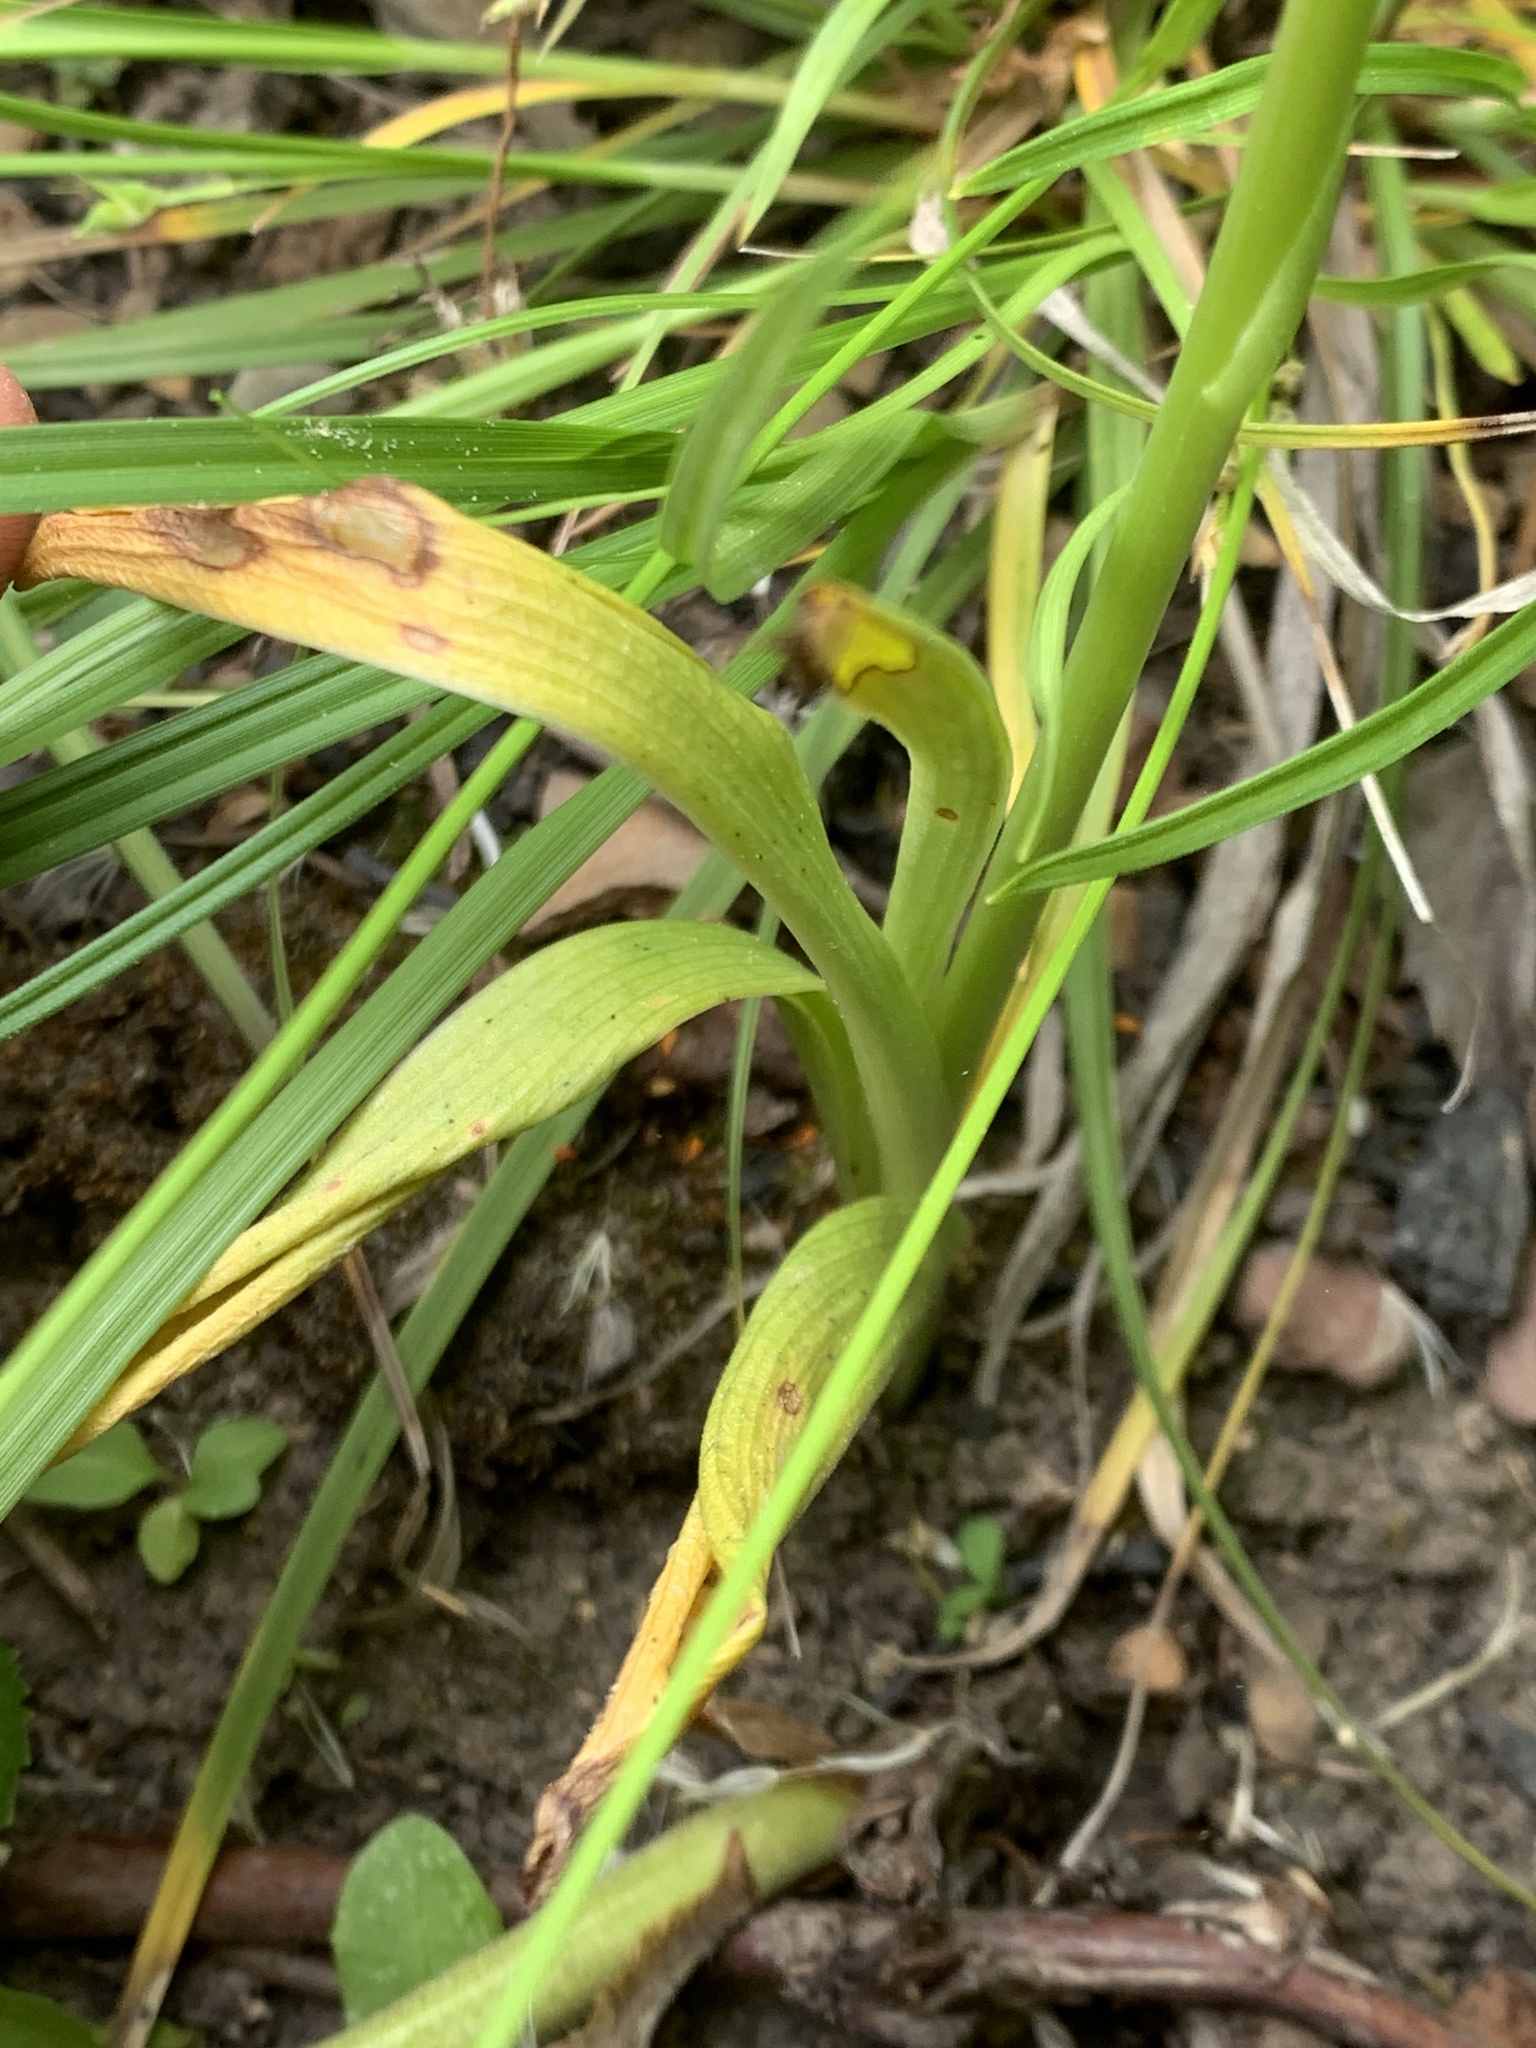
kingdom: Plantae
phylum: Tracheophyta
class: Liliopsida
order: Asparagales
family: Orchidaceae
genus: Platanthera
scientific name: Platanthera unalascensis
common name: Alaska bog orchid
